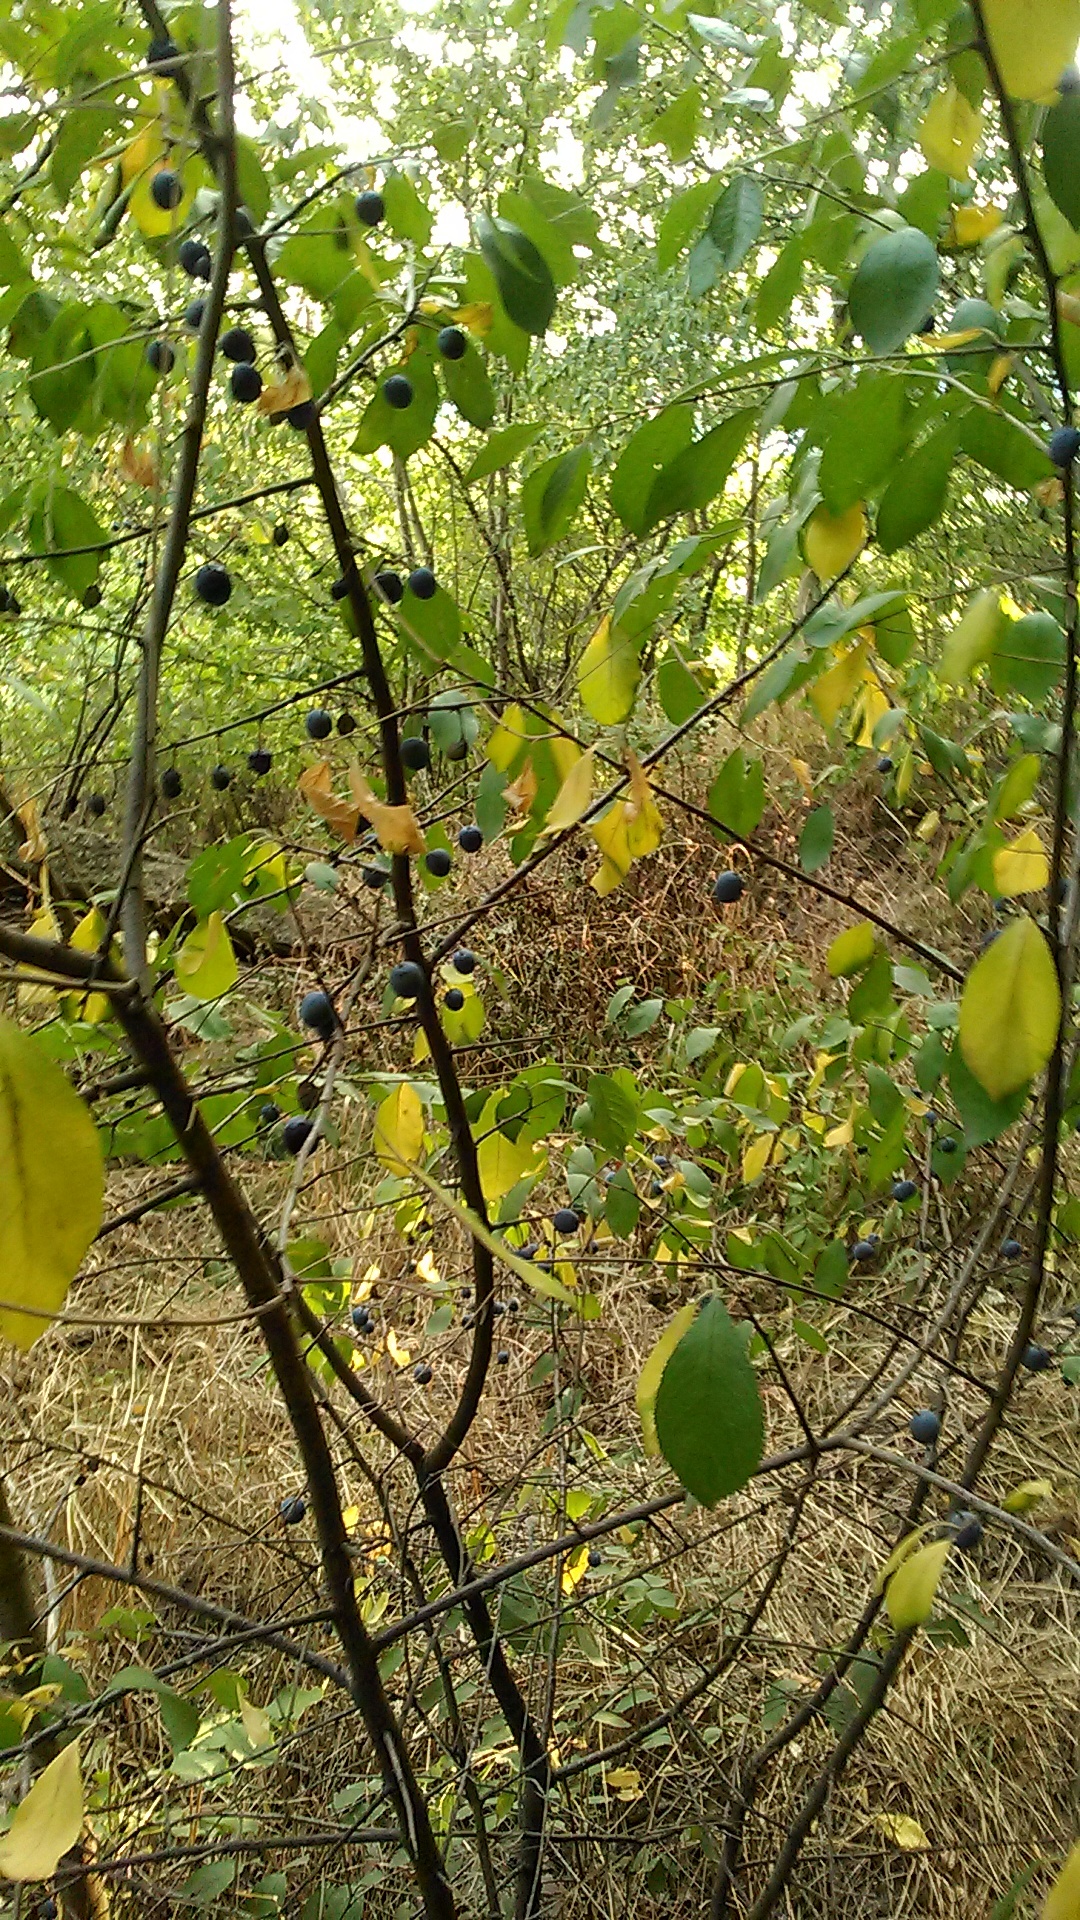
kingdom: Plantae
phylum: Tracheophyta
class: Magnoliopsida
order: Rosales
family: Rosaceae
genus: Prunus
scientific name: Prunus spinosa
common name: Blackthorn
